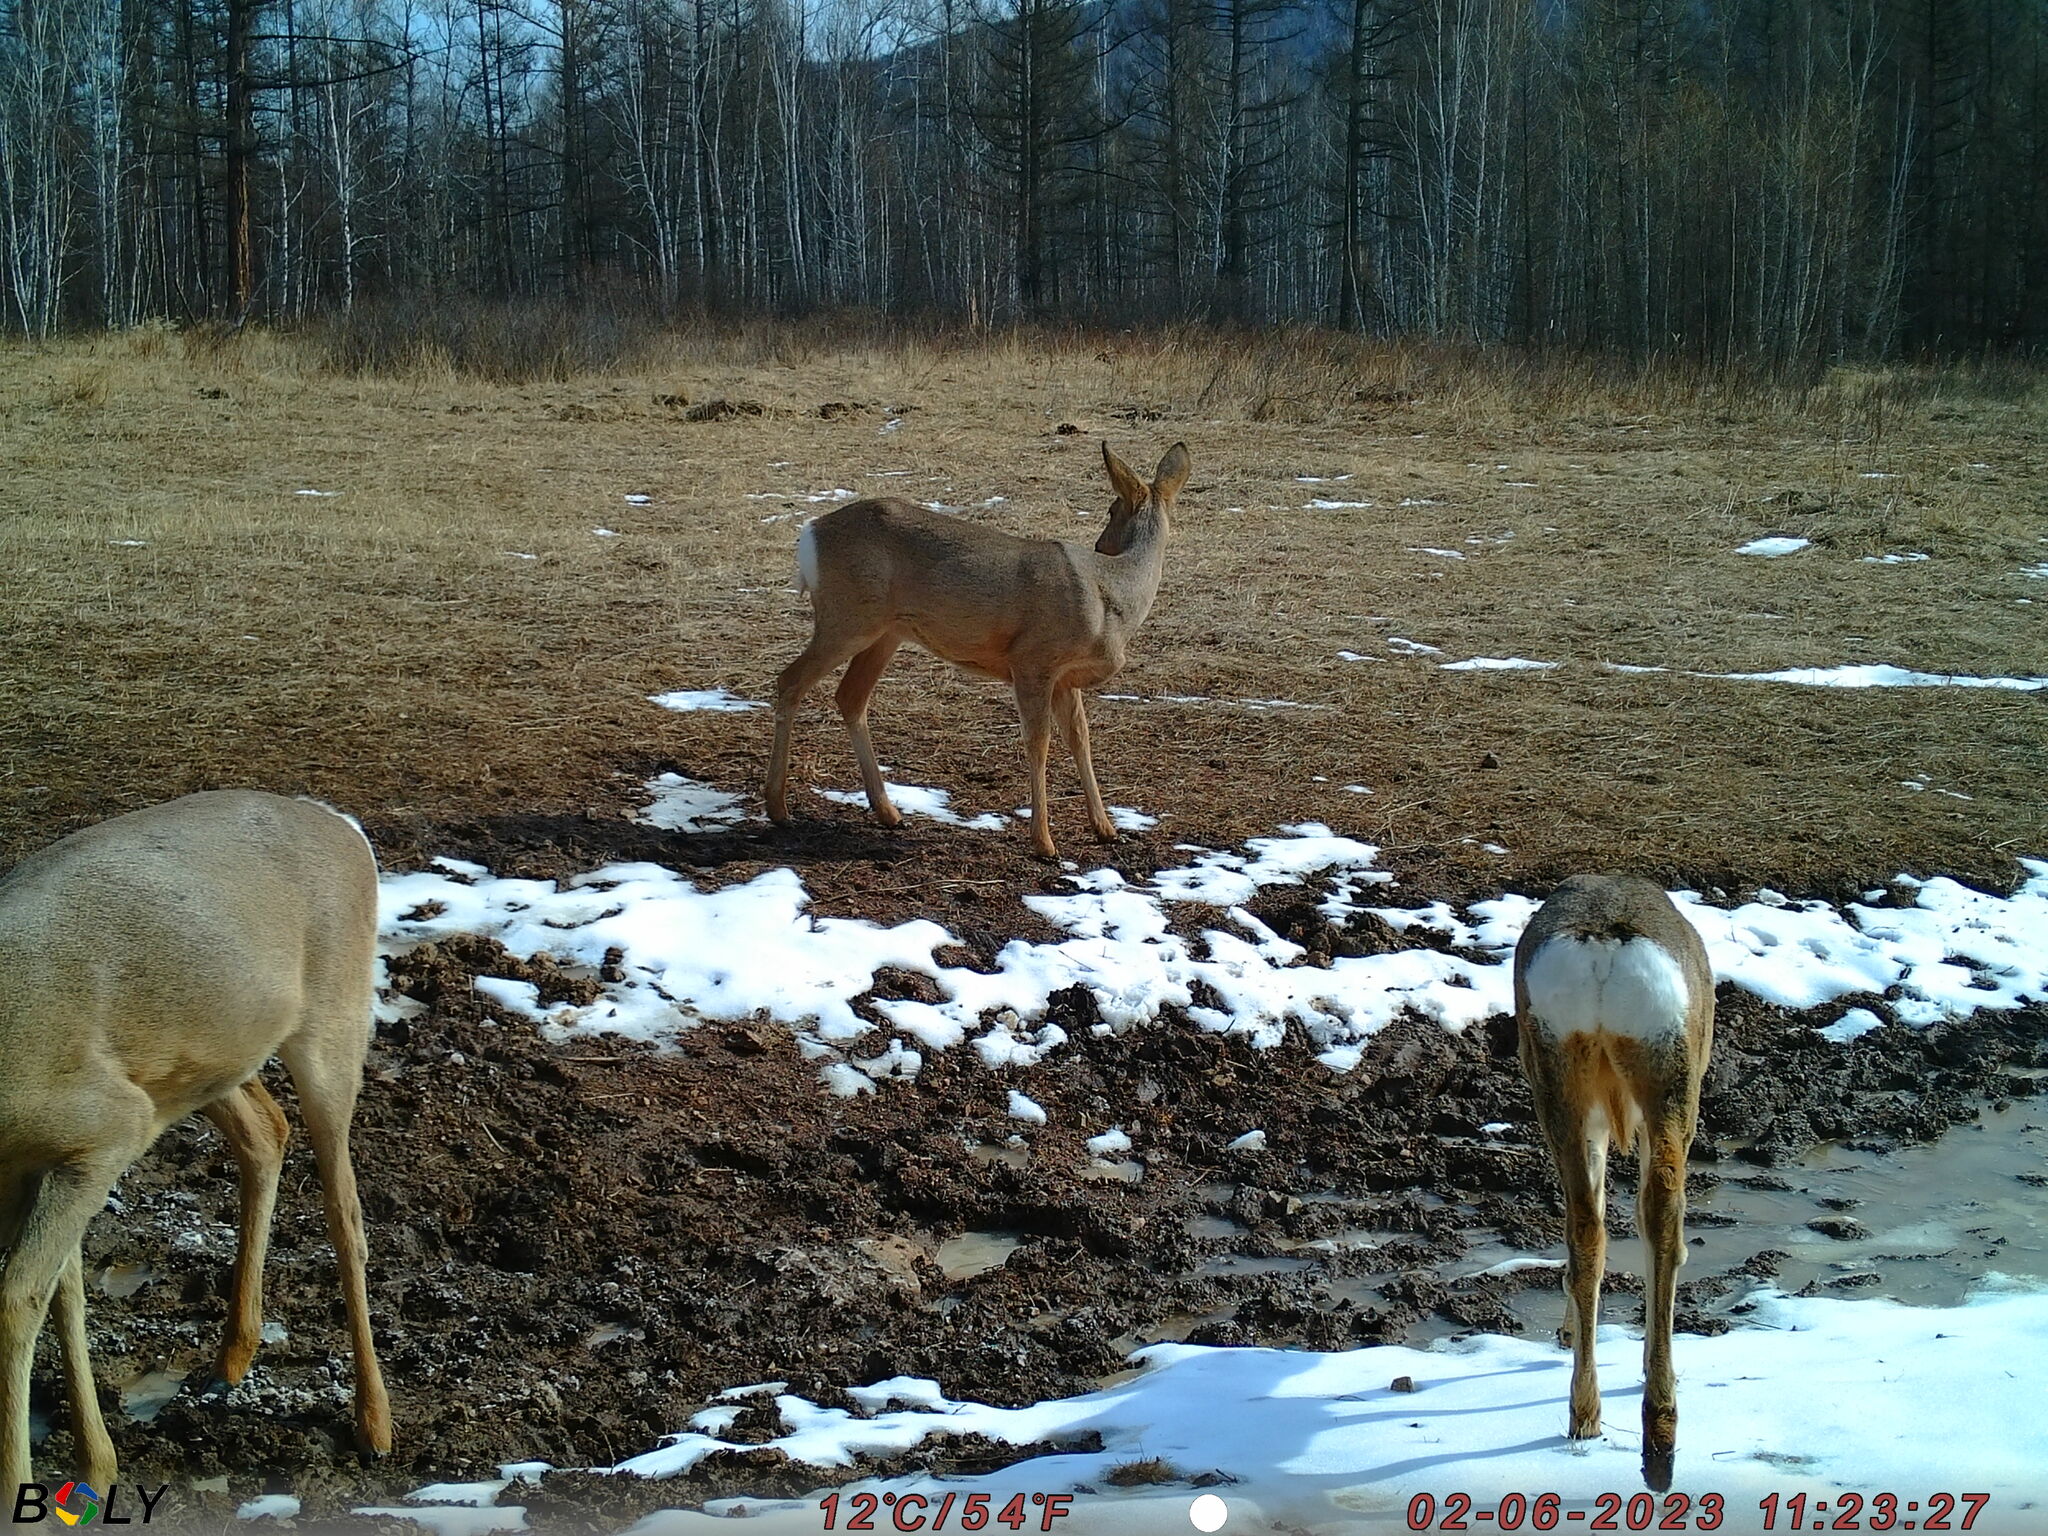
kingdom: Animalia
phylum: Chordata
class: Mammalia
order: Artiodactyla
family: Cervidae
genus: Capreolus
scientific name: Capreolus pygargus
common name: Siberian roe
